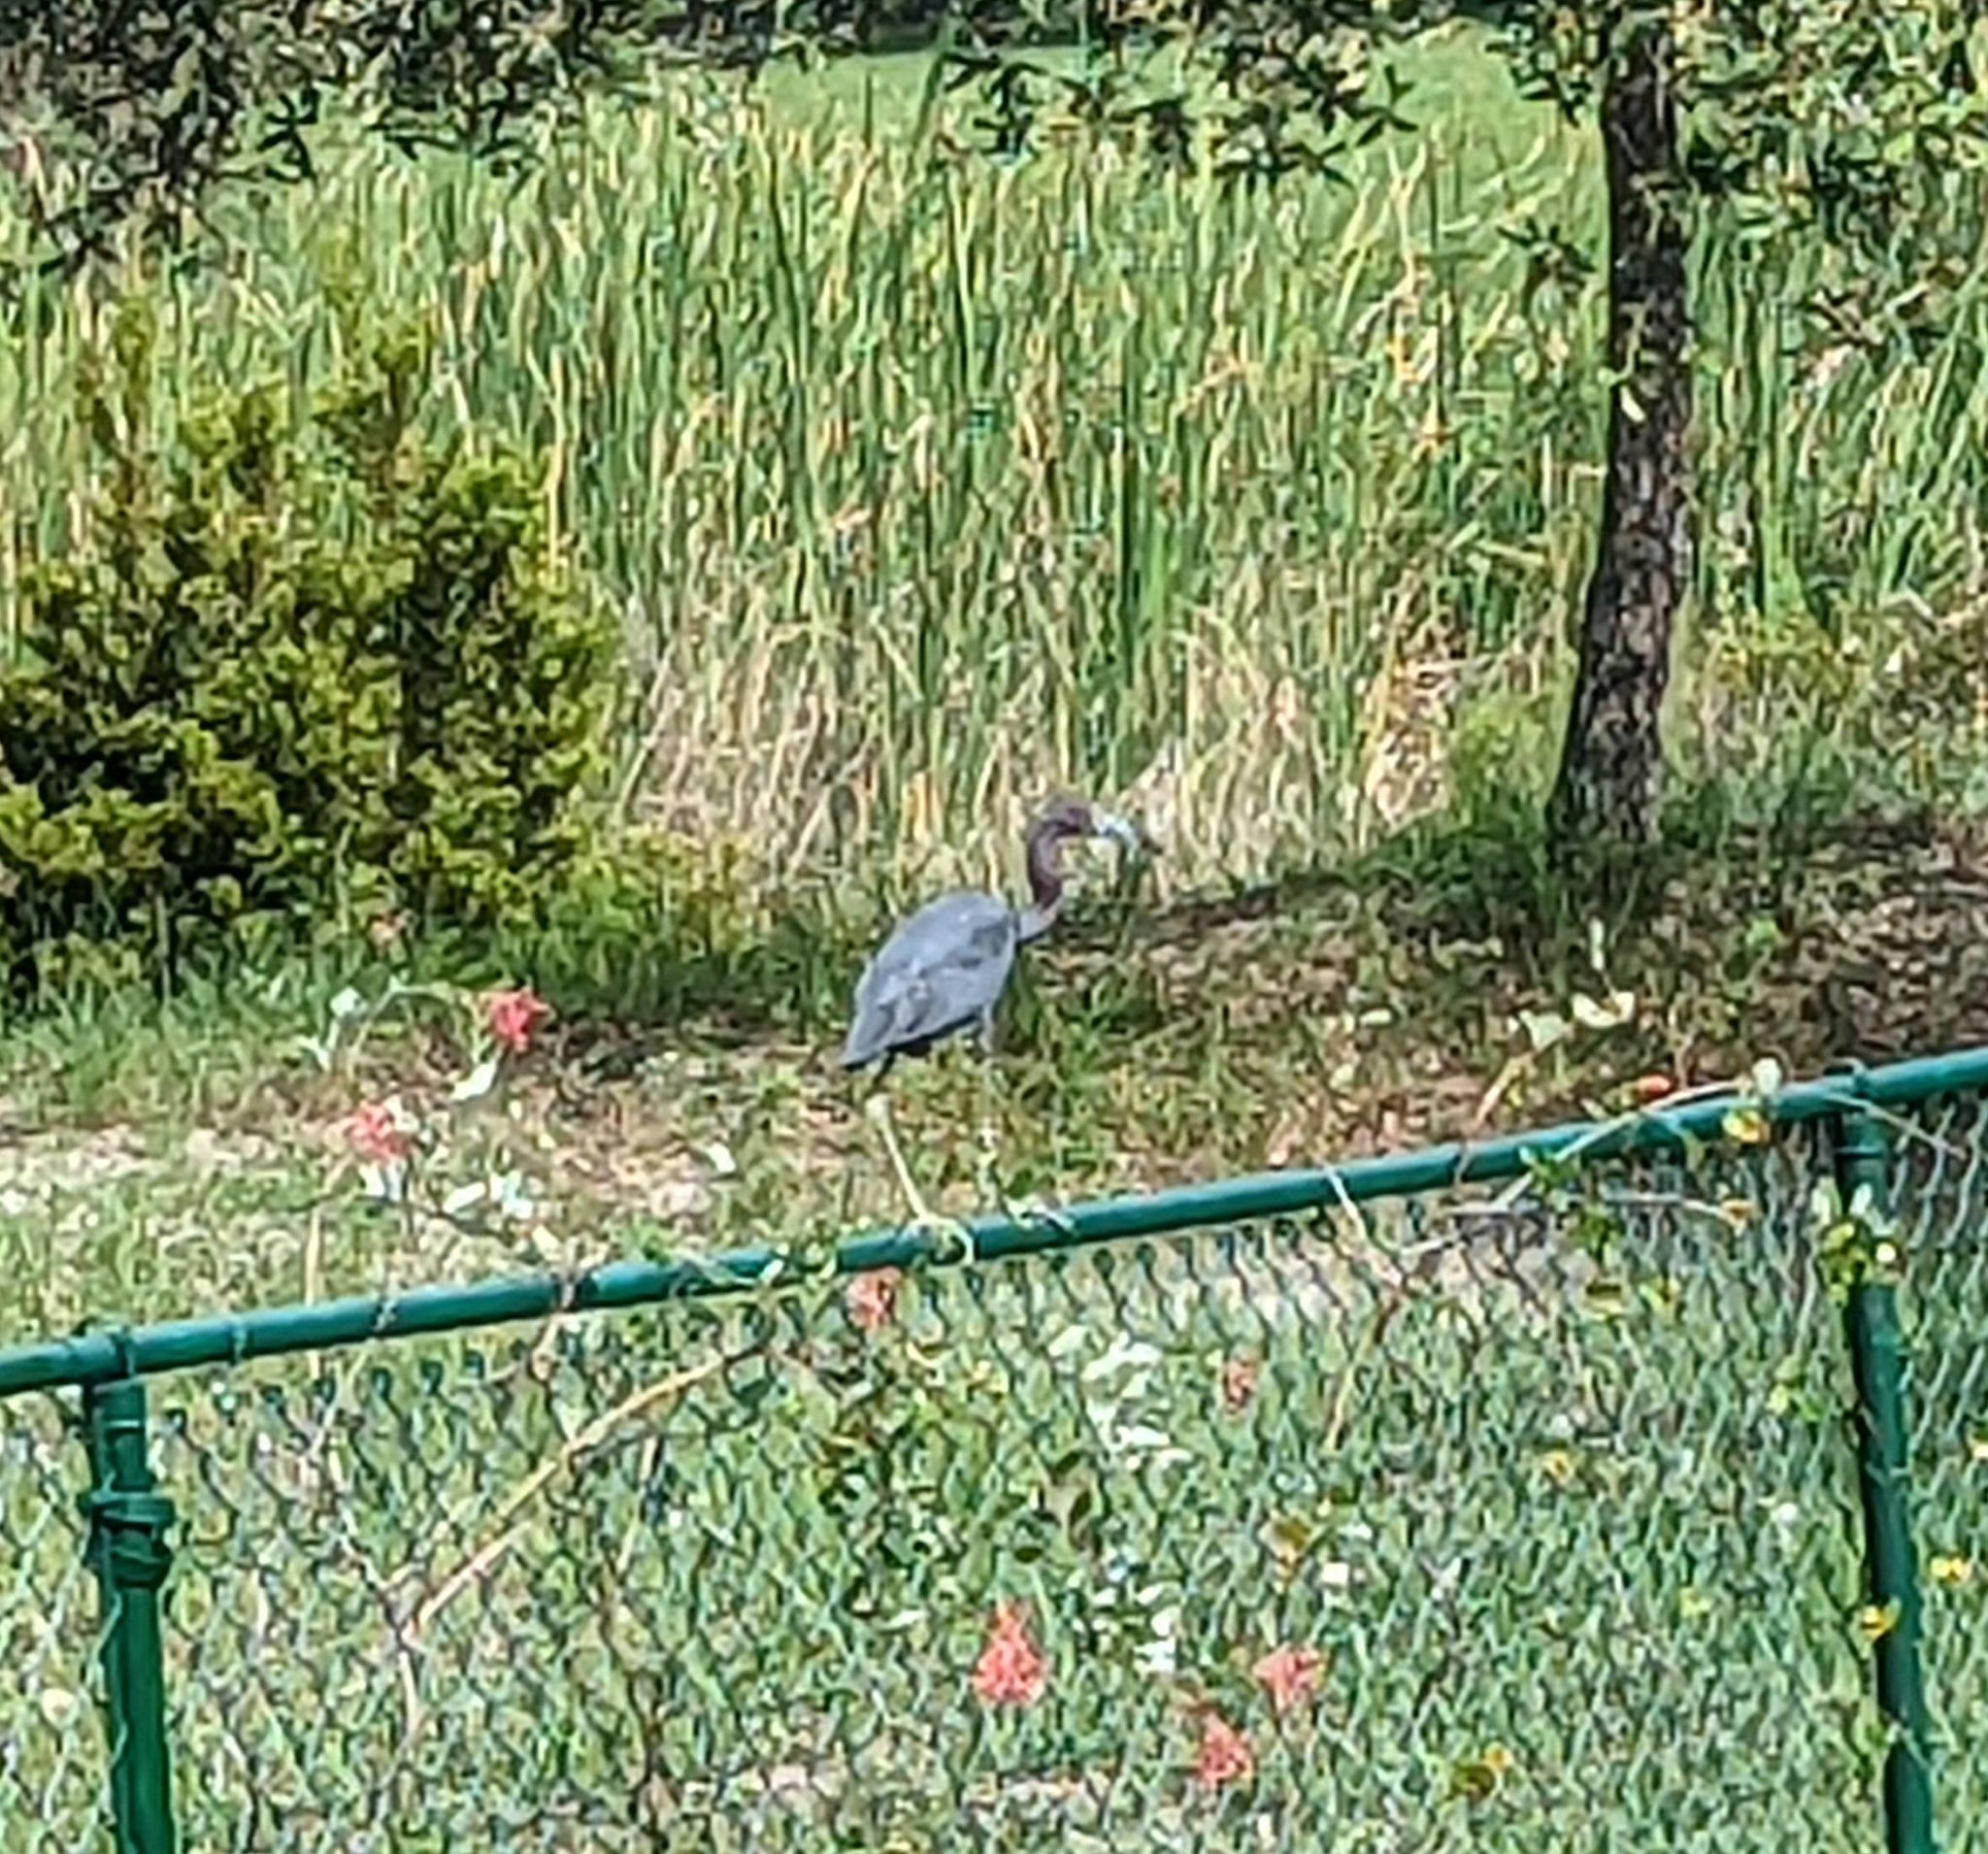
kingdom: Animalia
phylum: Chordata
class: Aves
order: Pelecaniformes
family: Ardeidae
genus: Egretta
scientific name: Egretta caerulea
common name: Little blue heron
